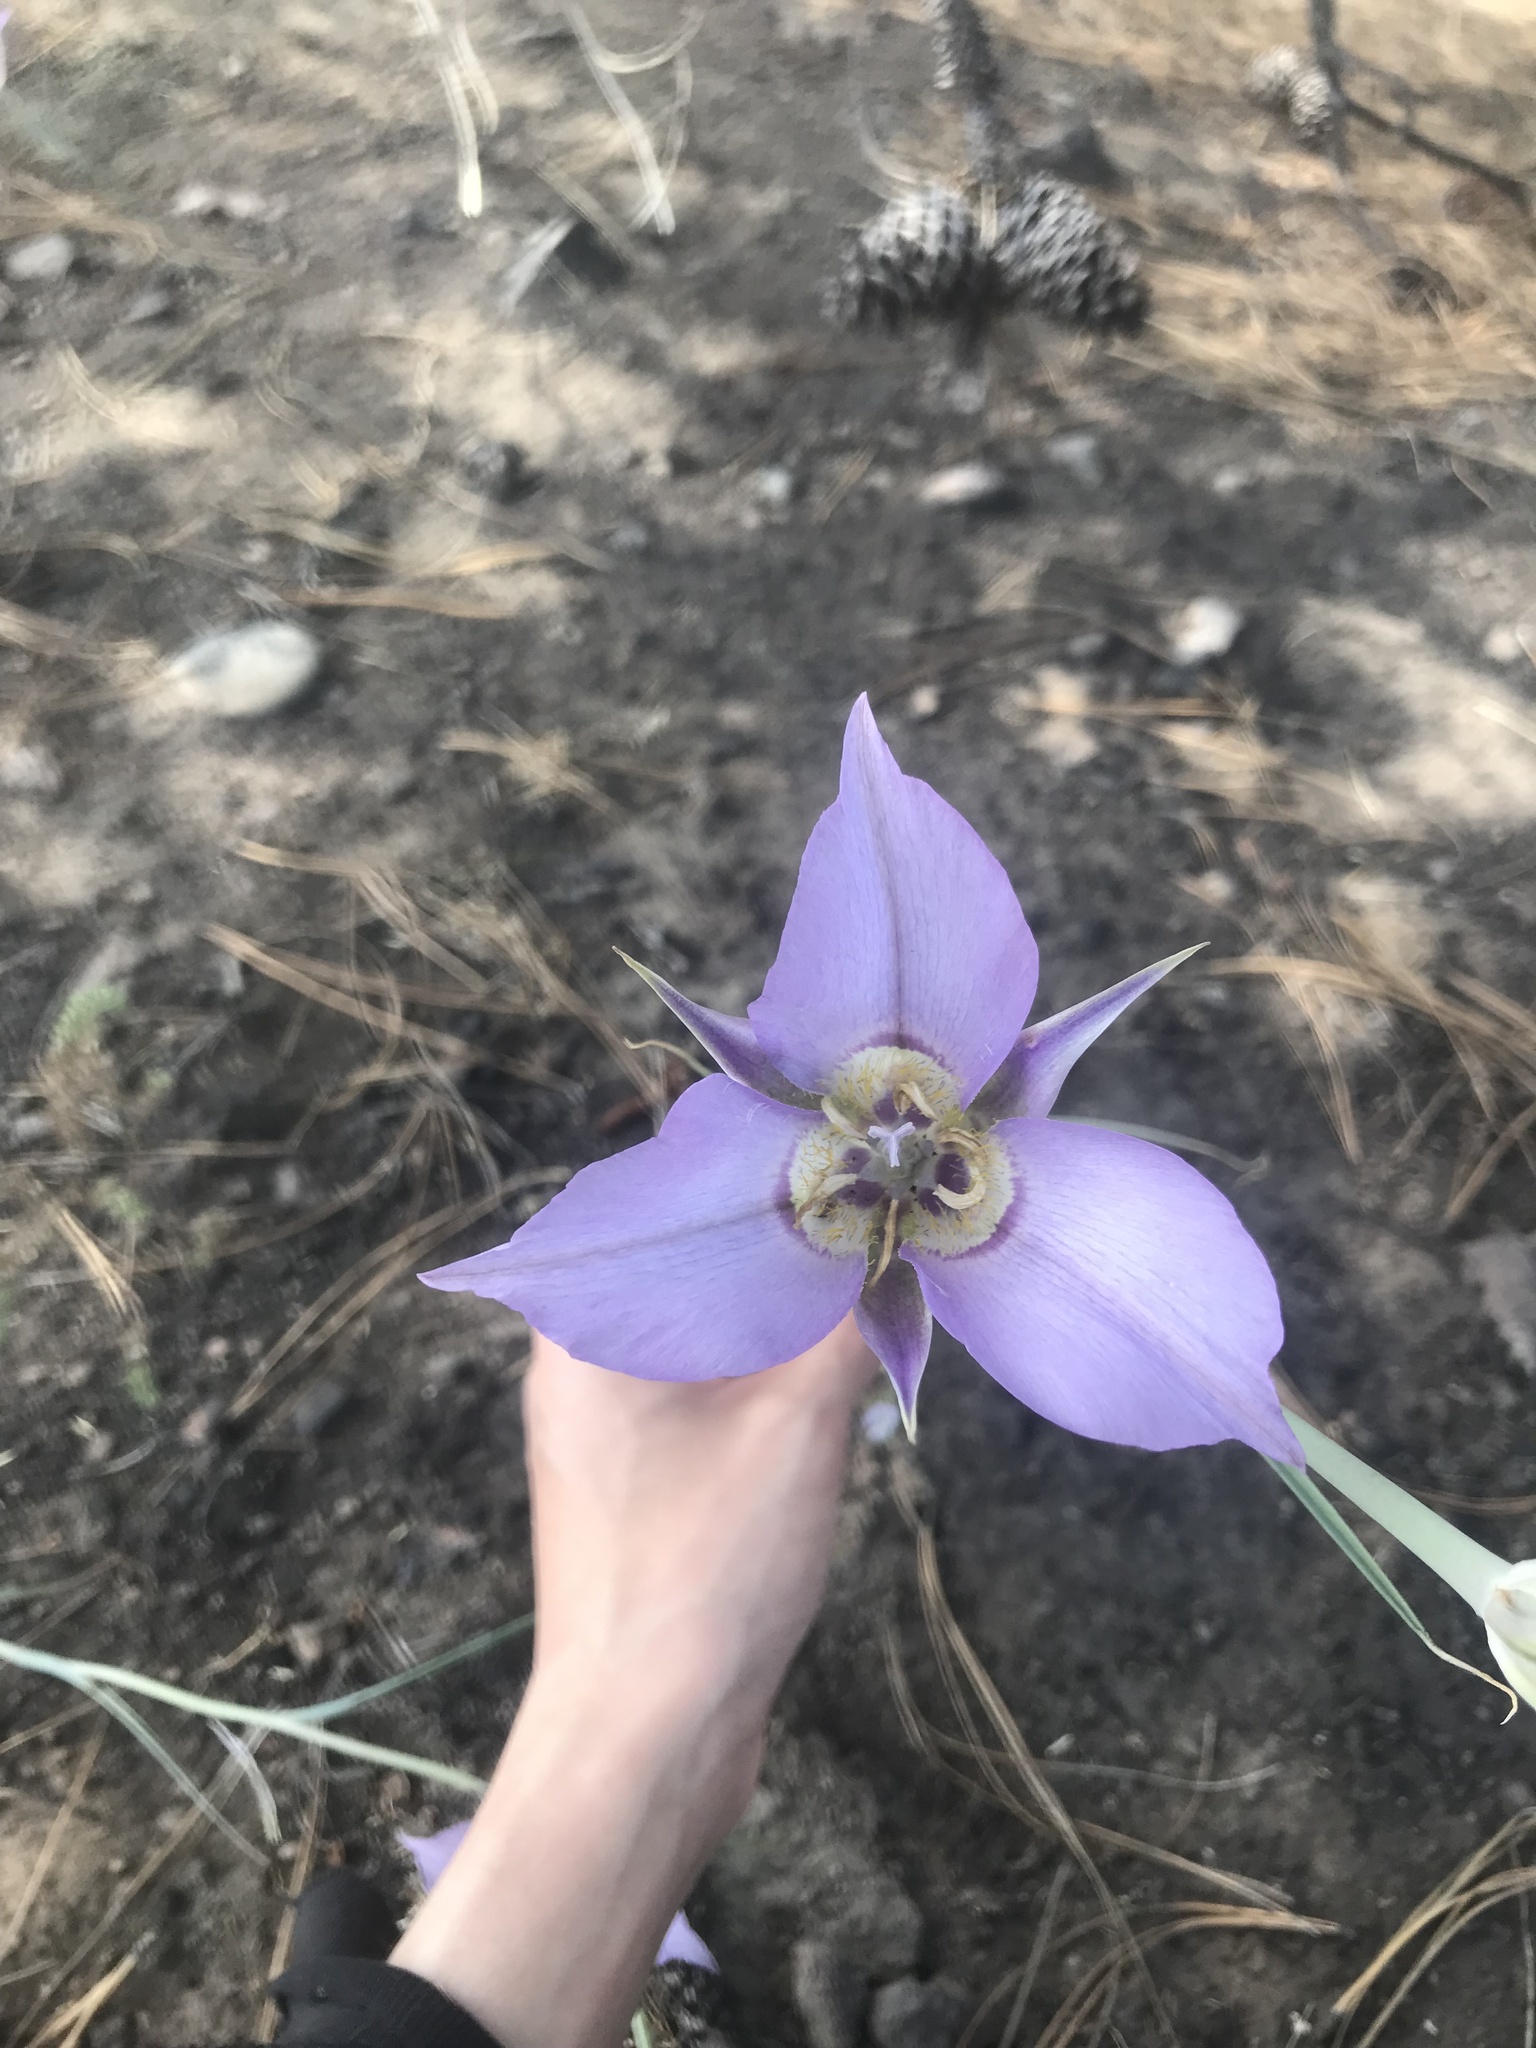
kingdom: Plantae
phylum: Tracheophyta
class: Liliopsida
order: Liliales
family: Liliaceae
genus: Calochortus
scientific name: Calochortus macrocarpus
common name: Green-band mariposa lily
